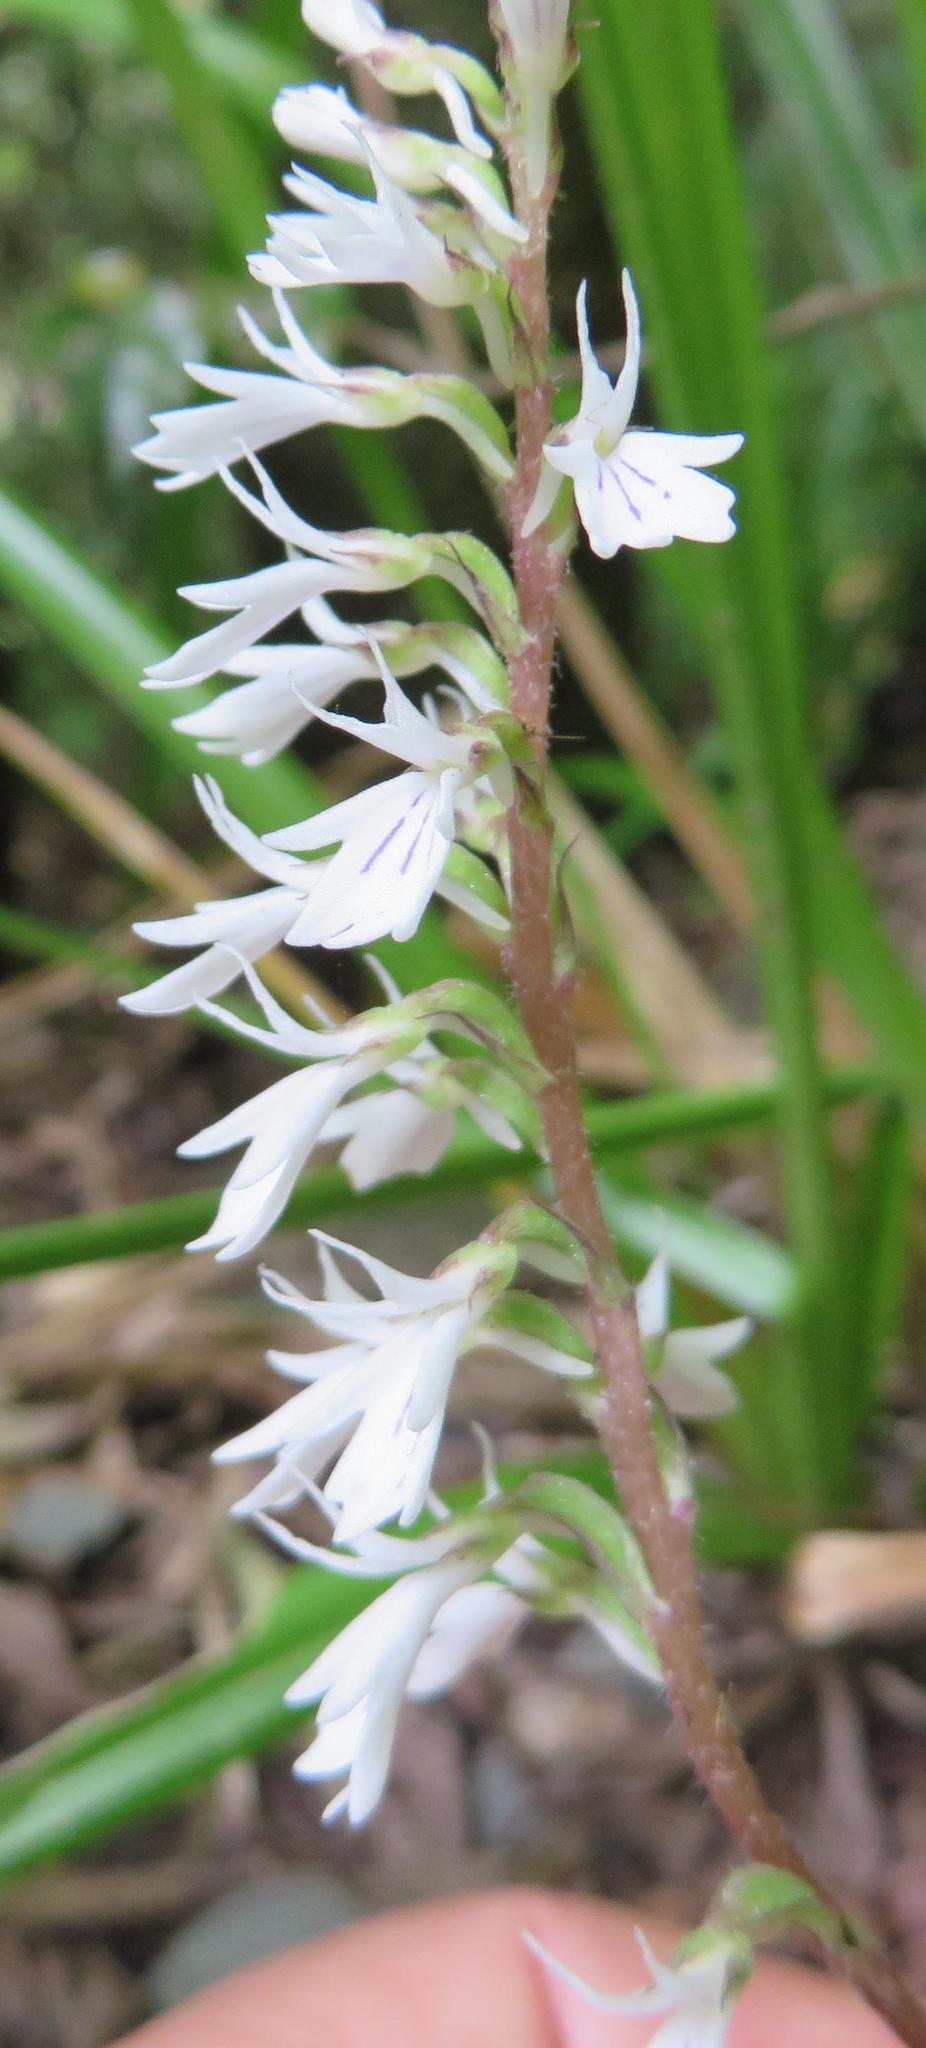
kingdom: Plantae
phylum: Tracheophyta
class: Liliopsida
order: Asparagales
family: Orchidaceae
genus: Holothrix
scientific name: Holothrix orthoceras
